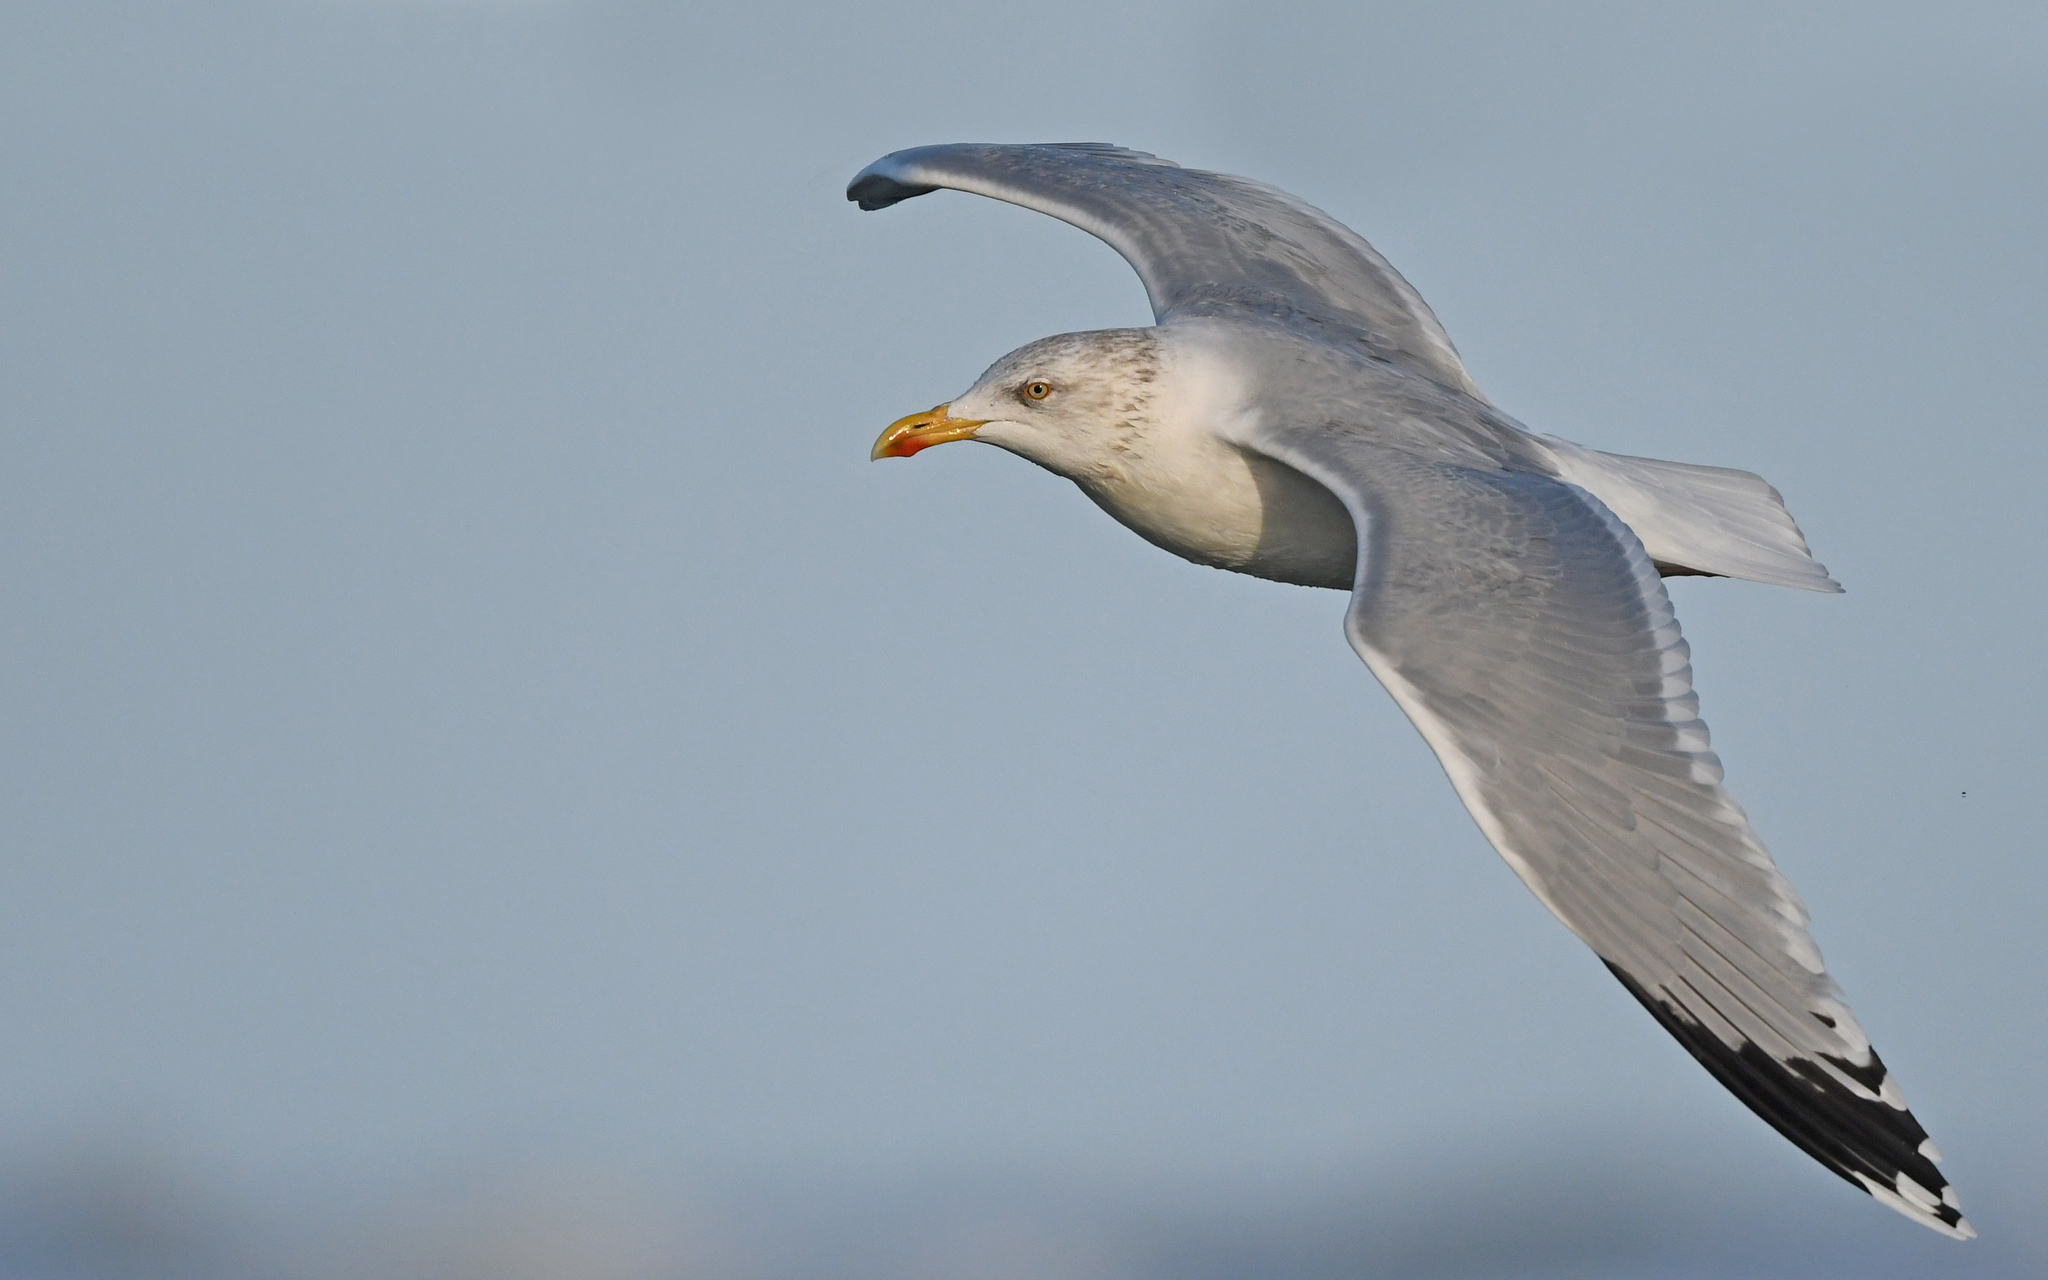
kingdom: Animalia
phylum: Chordata
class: Aves
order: Charadriiformes
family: Laridae
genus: Larus
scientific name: Larus argentatus
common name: Herring gull
